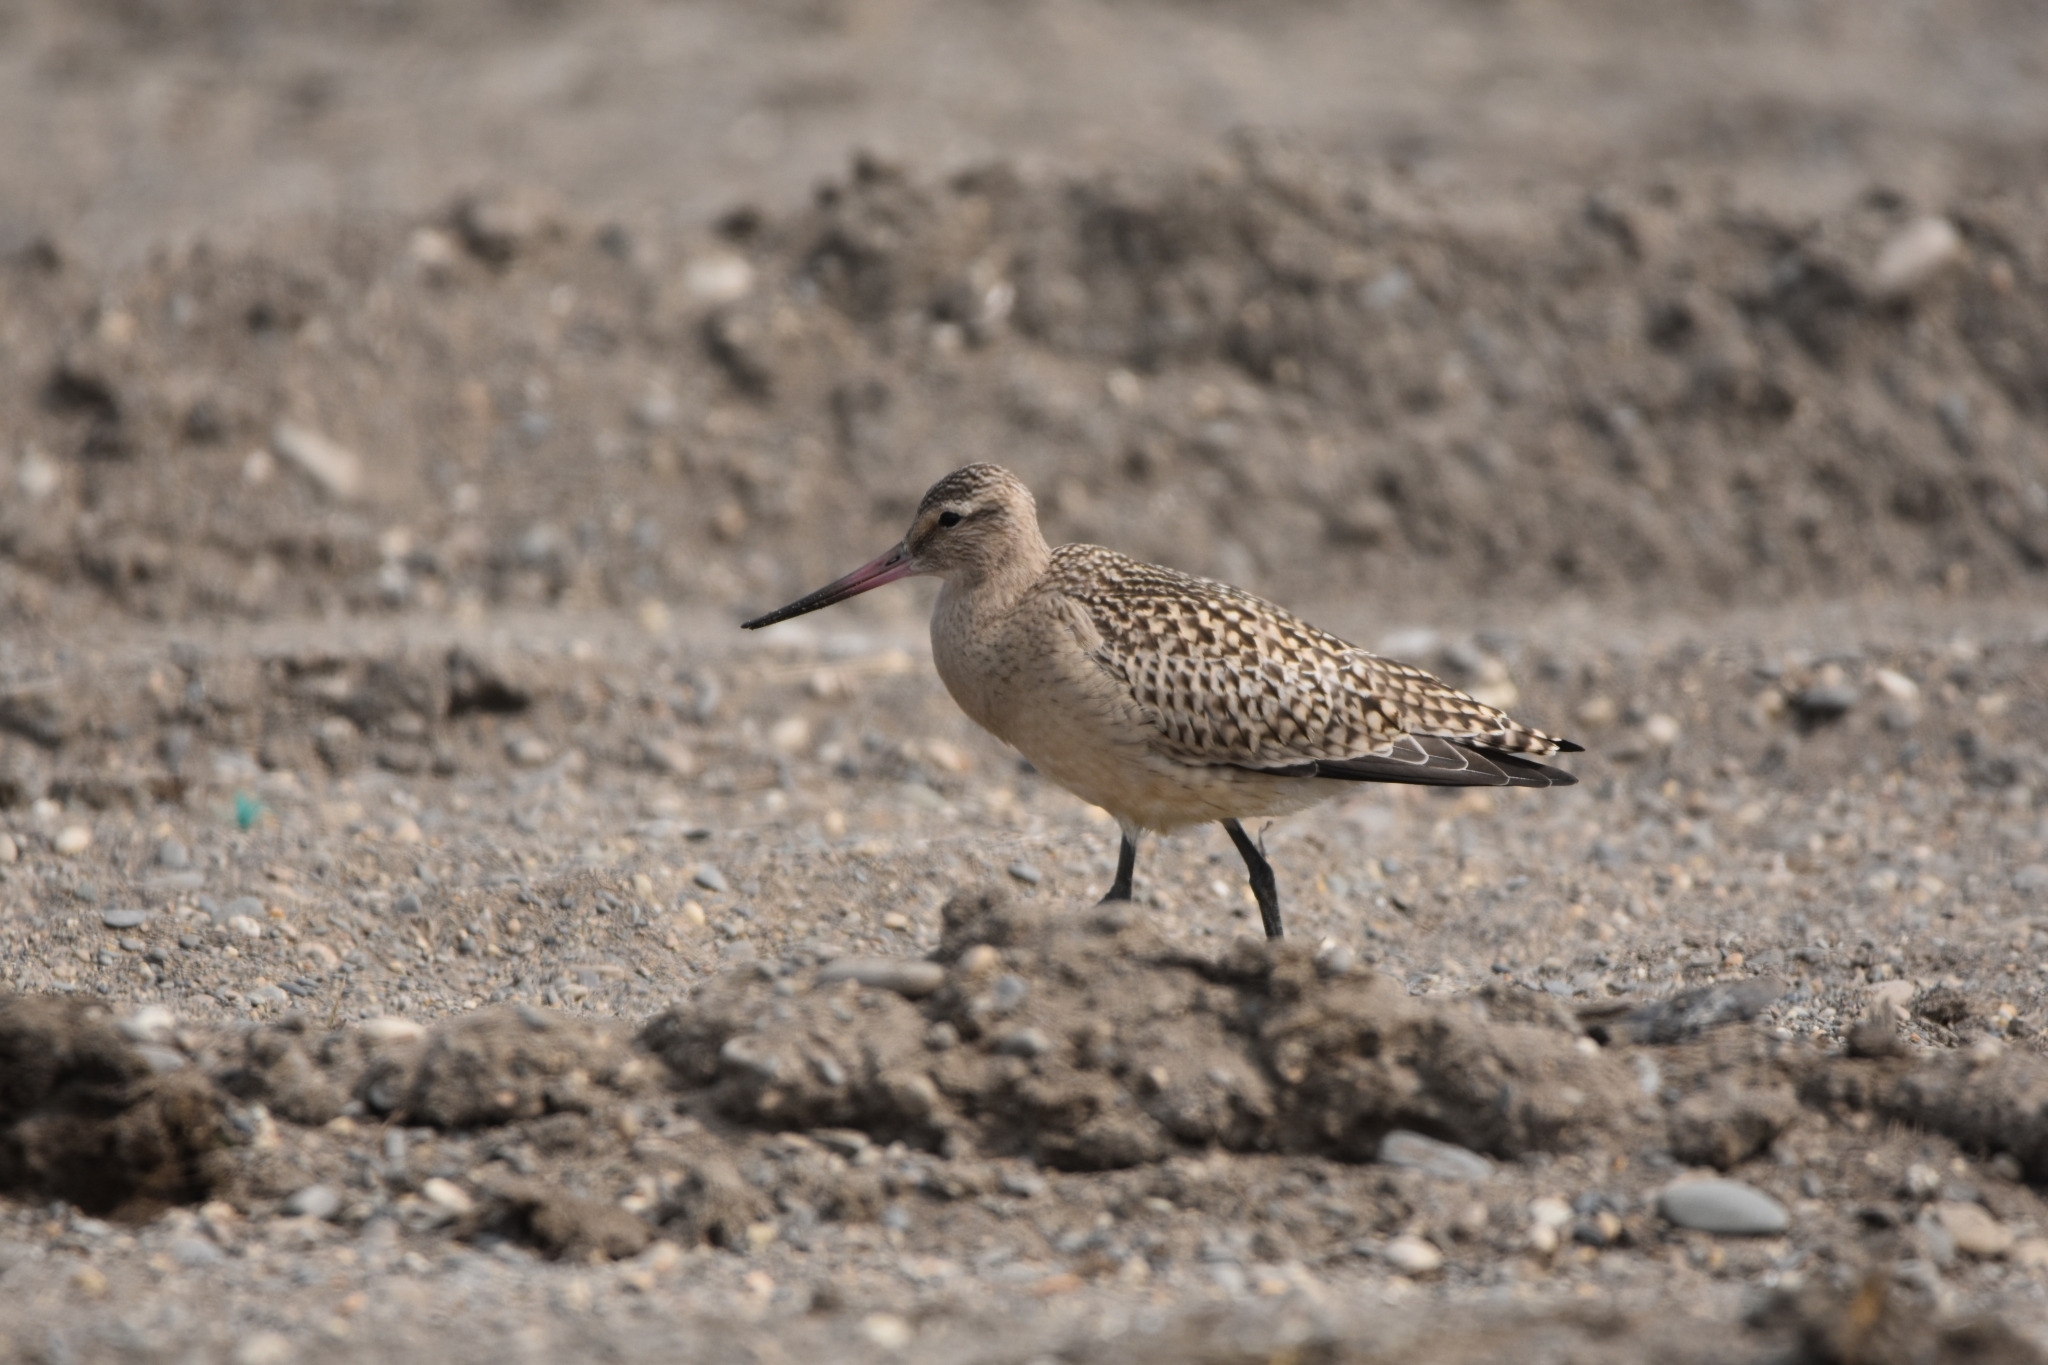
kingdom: Animalia
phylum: Chordata
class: Aves
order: Charadriiformes
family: Scolopacidae
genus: Limosa
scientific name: Limosa lapponica
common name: Bar-tailed godwit
